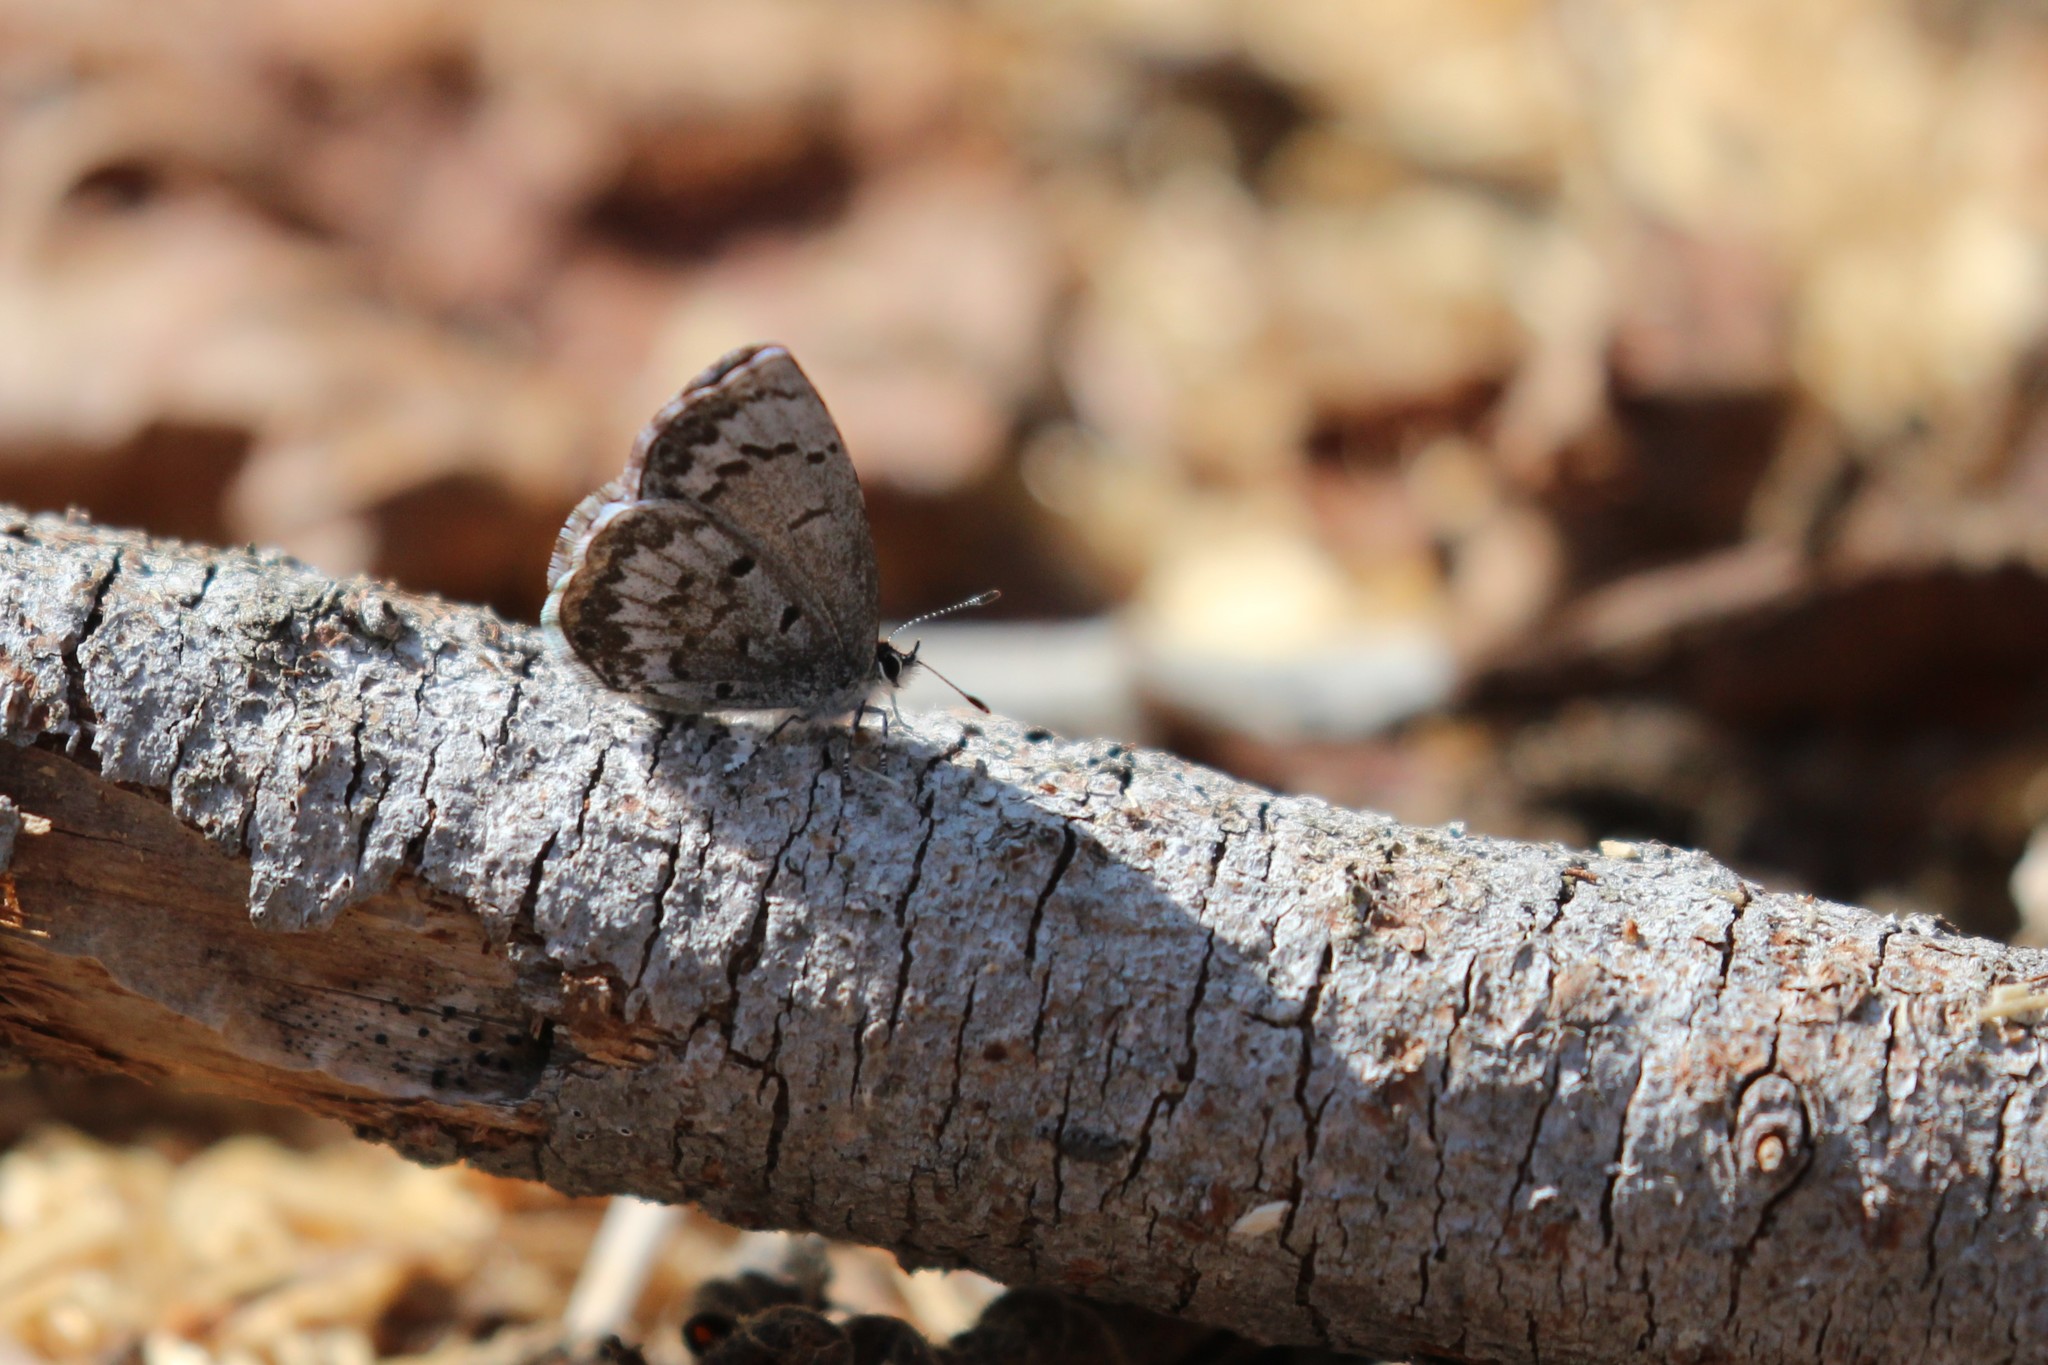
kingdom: Animalia
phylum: Arthropoda
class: Insecta
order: Lepidoptera
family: Lycaenidae
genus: Celastrina
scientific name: Celastrina lucia
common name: Lucia azure
